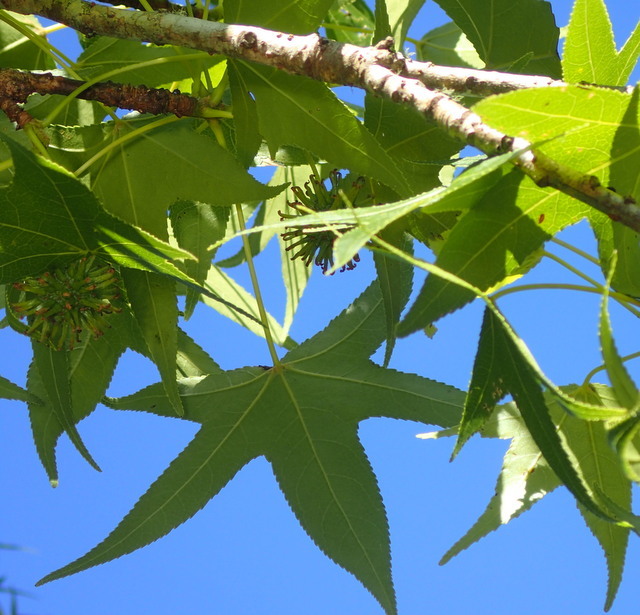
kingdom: Plantae
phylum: Tracheophyta
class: Magnoliopsida
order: Saxifragales
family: Altingiaceae
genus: Liquidambar
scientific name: Liquidambar styraciflua
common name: Sweet gum
